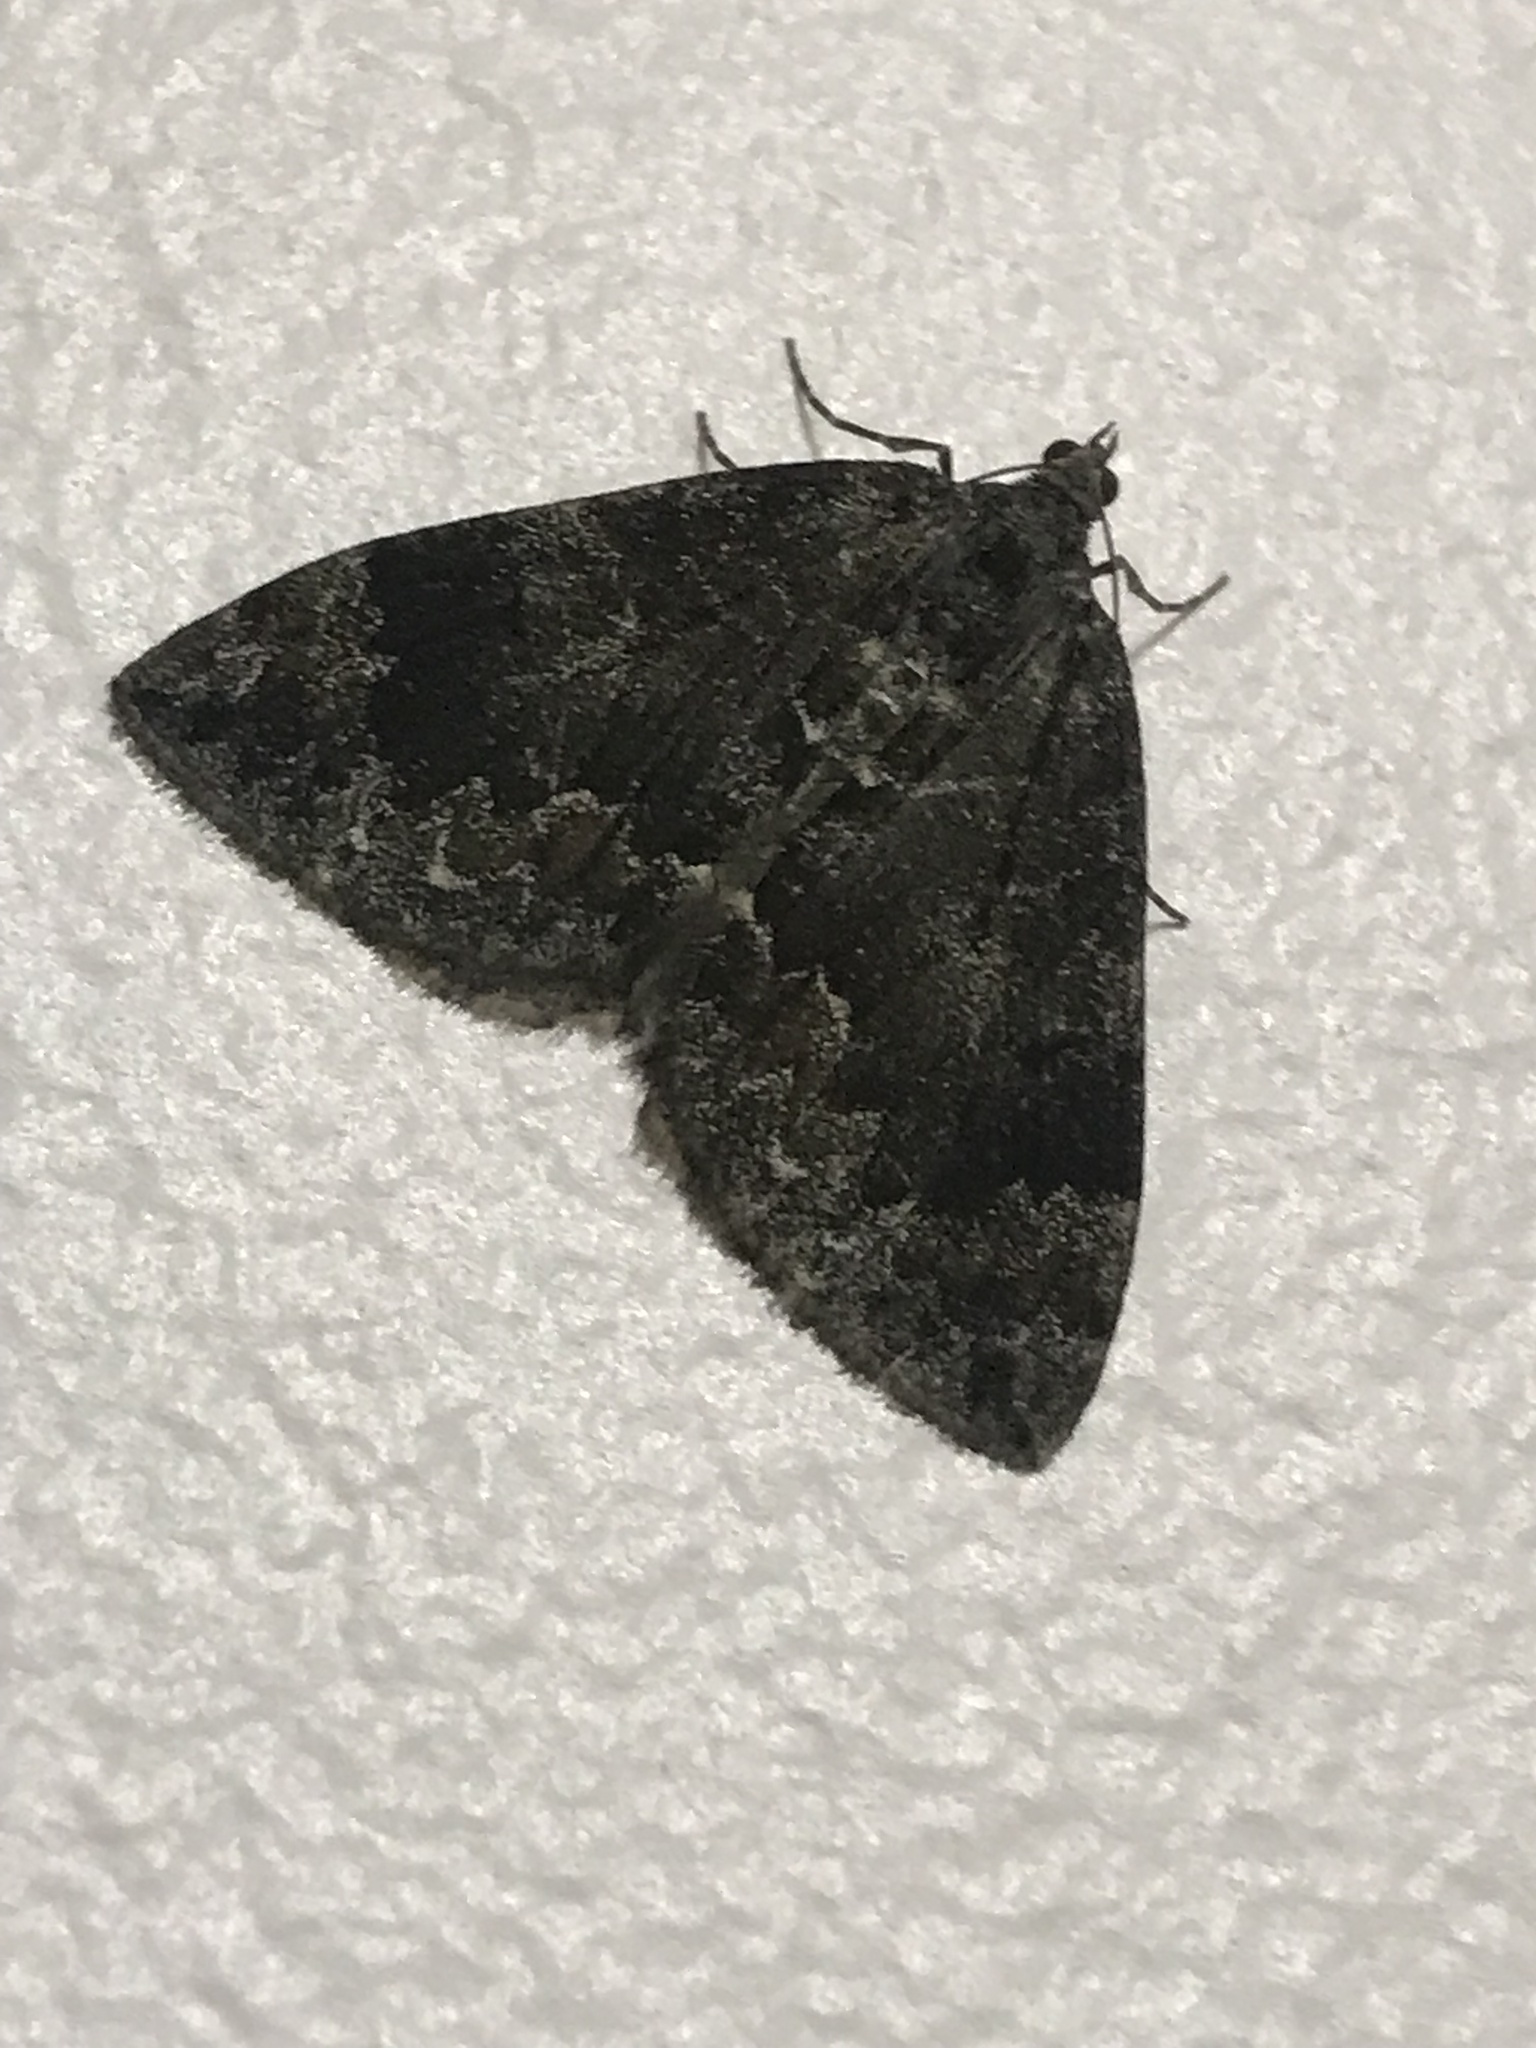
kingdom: Animalia
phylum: Arthropoda
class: Insecta
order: Lepidoptera
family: Geometridae
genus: Dysstroma
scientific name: Dysstroma truncata
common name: Common marbled carpet
